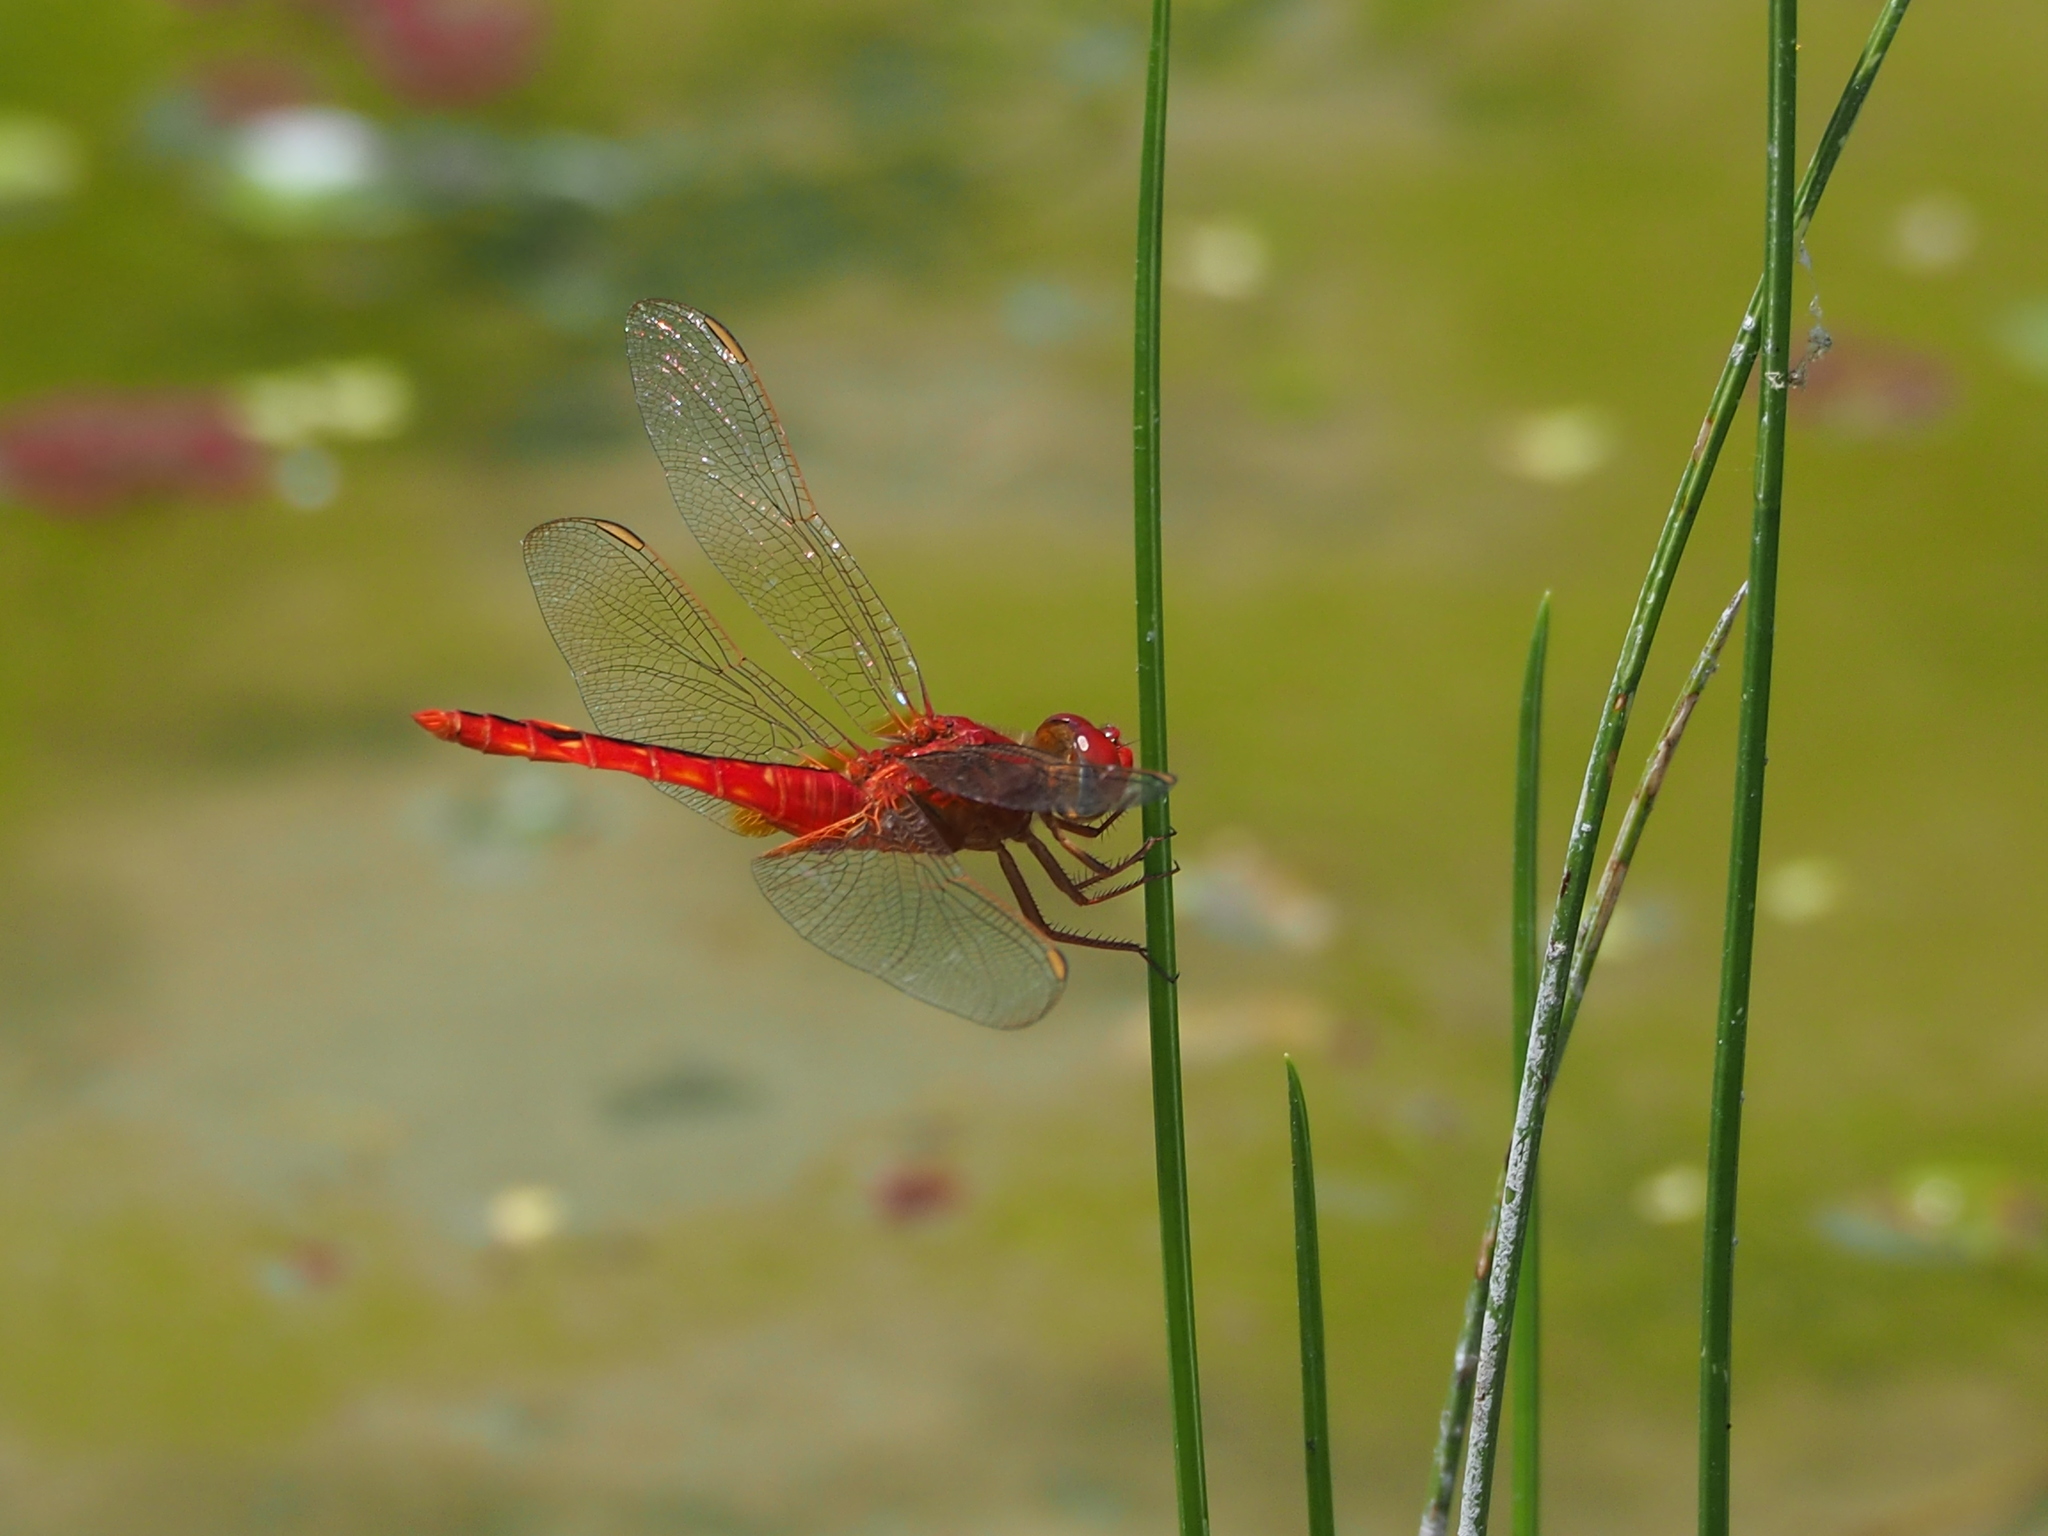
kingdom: Animalia
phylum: Arthropoda
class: Insecta
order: Odonata
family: Libellulidae
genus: Crocothemis
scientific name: Crocothemis servilia
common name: Scarlet skimmer
